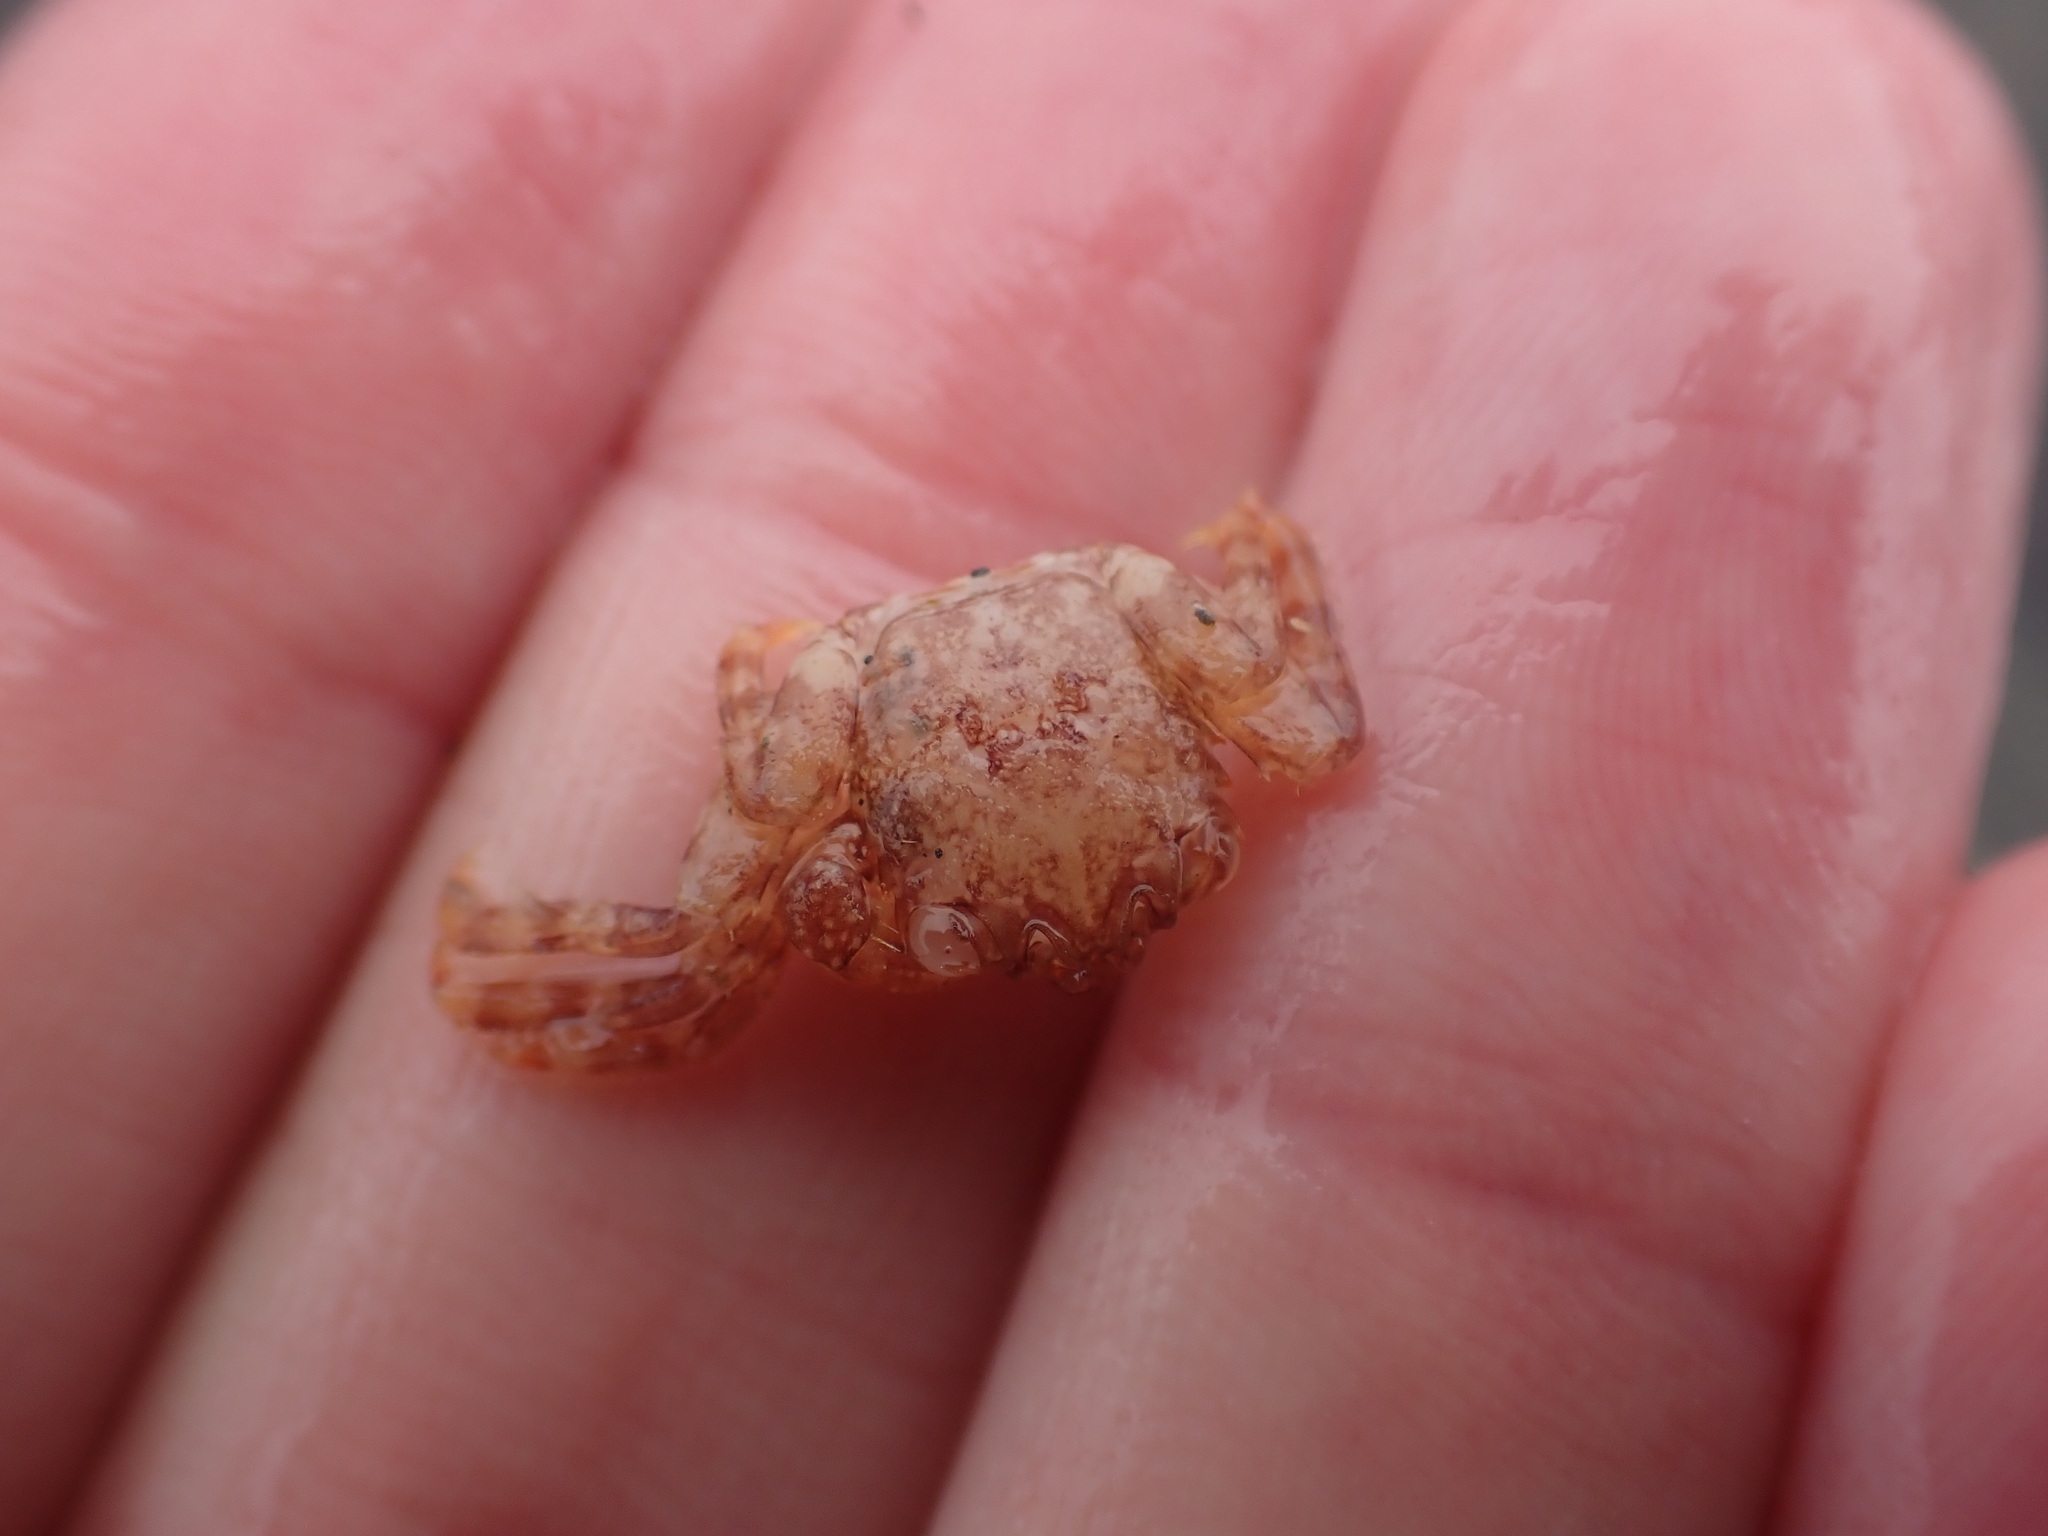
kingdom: Animalia
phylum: Arthropoda
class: Malacostraca
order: Decapoda
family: Plagusiidae
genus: Guinusia
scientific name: Guinusia chabrus
